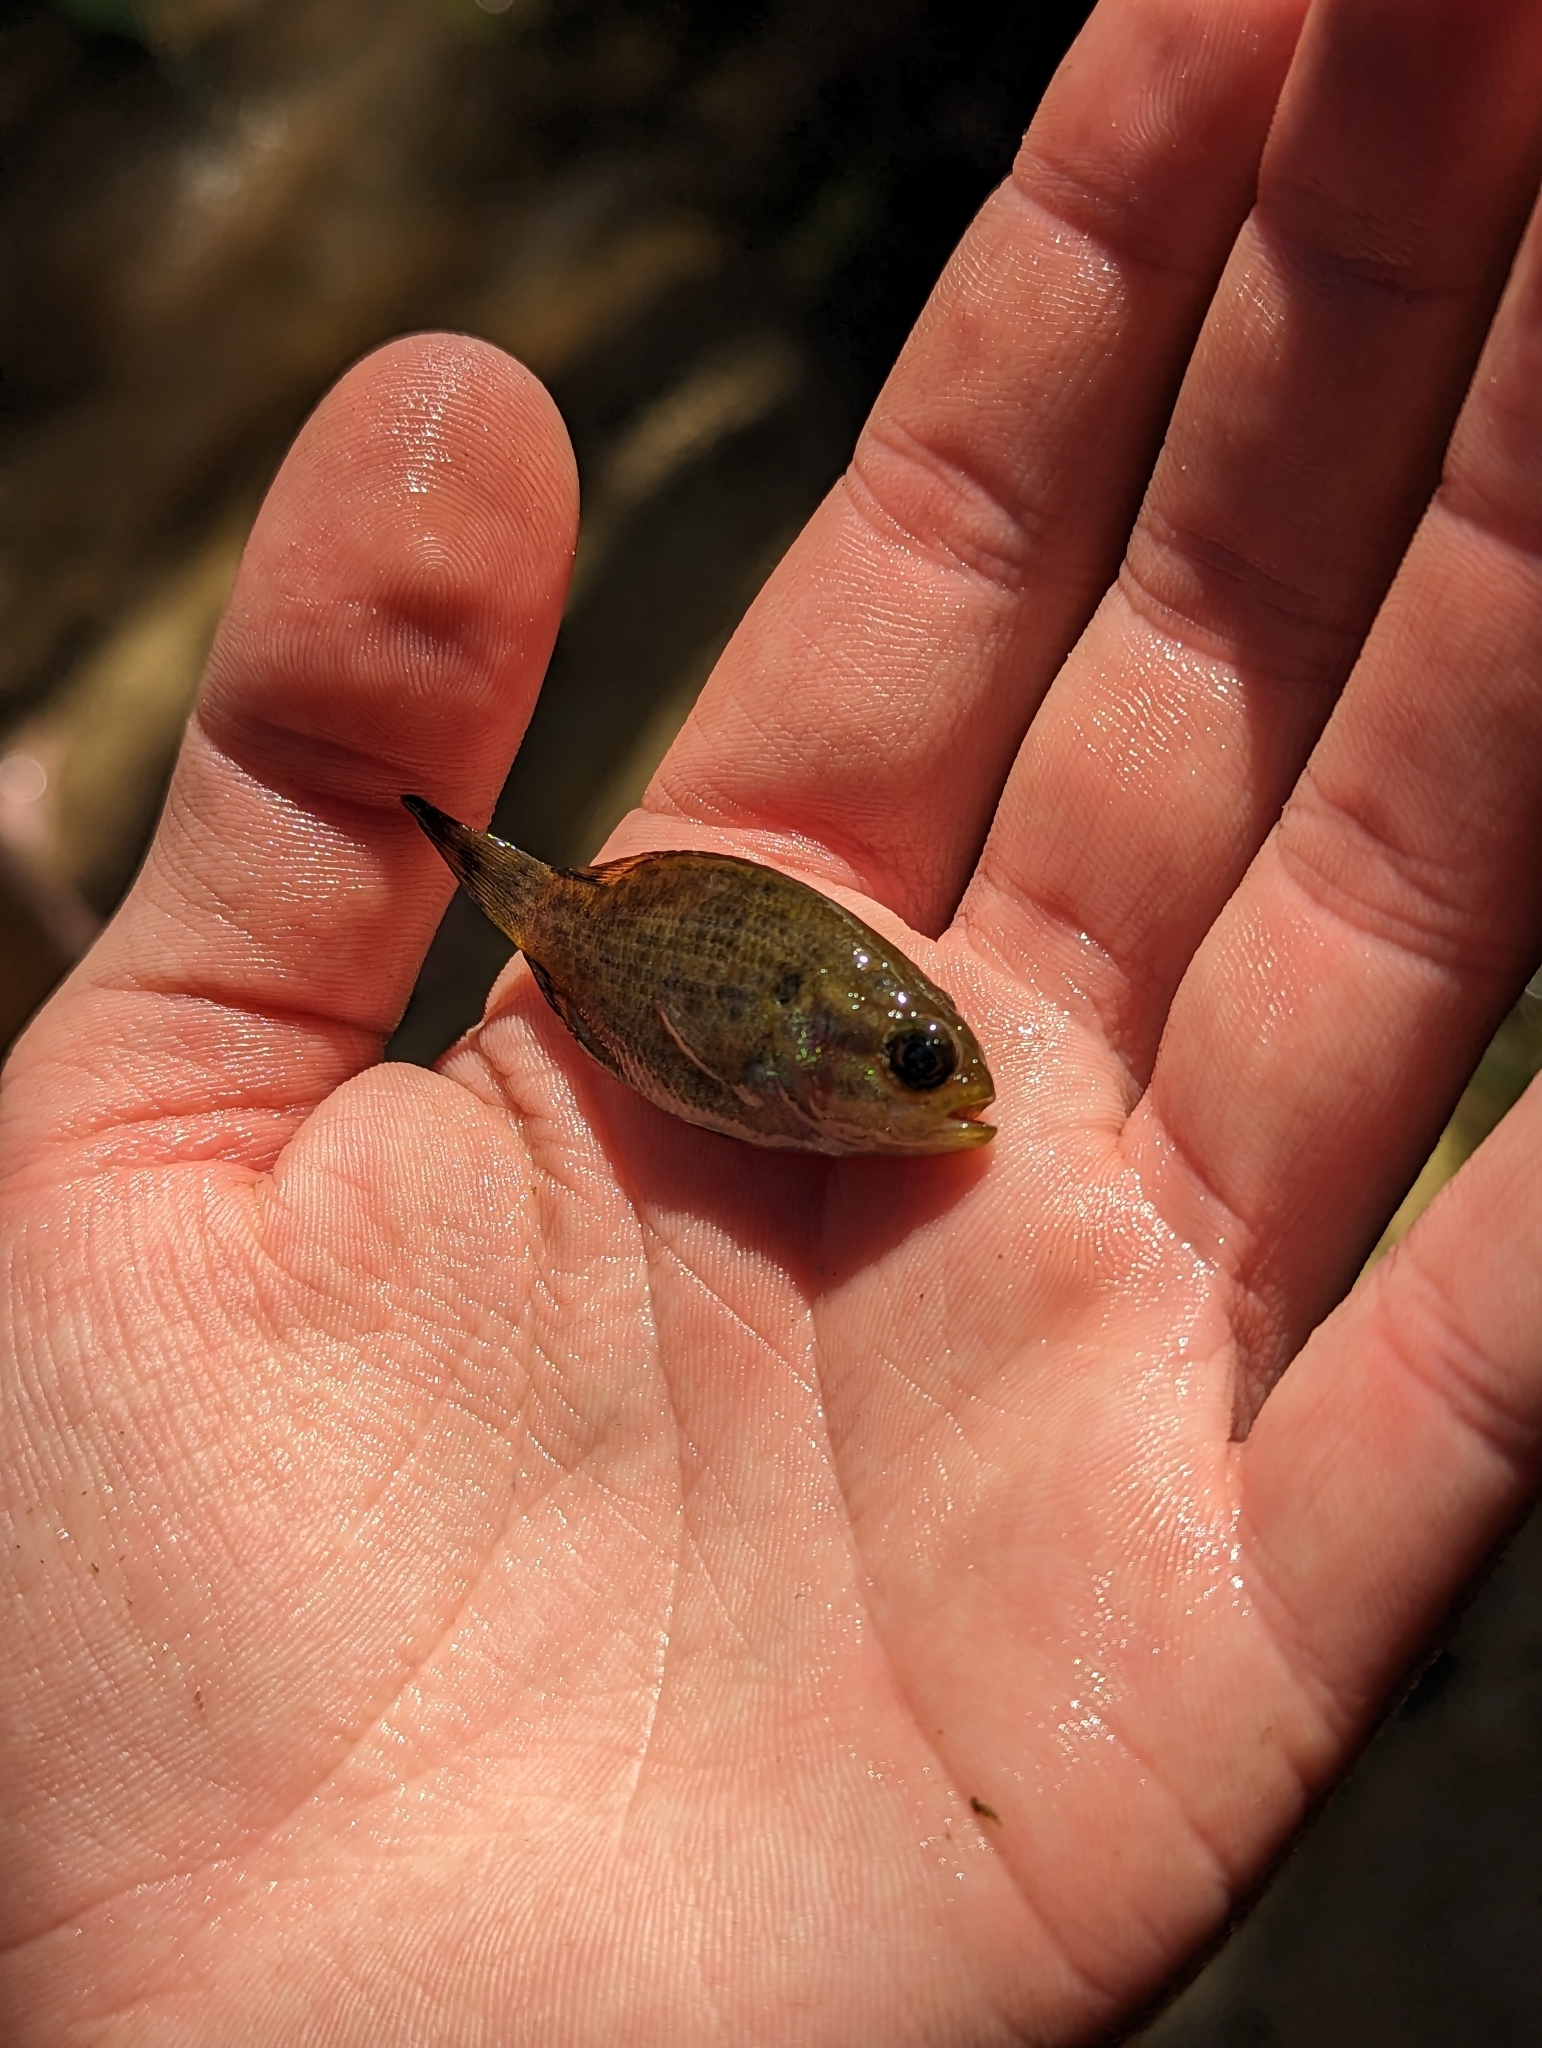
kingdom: Animalia
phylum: Chordata
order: Perciformes
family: Centrarchidae
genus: Acantharchus
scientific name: Acantharchus pomotis
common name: Mud sunfish
